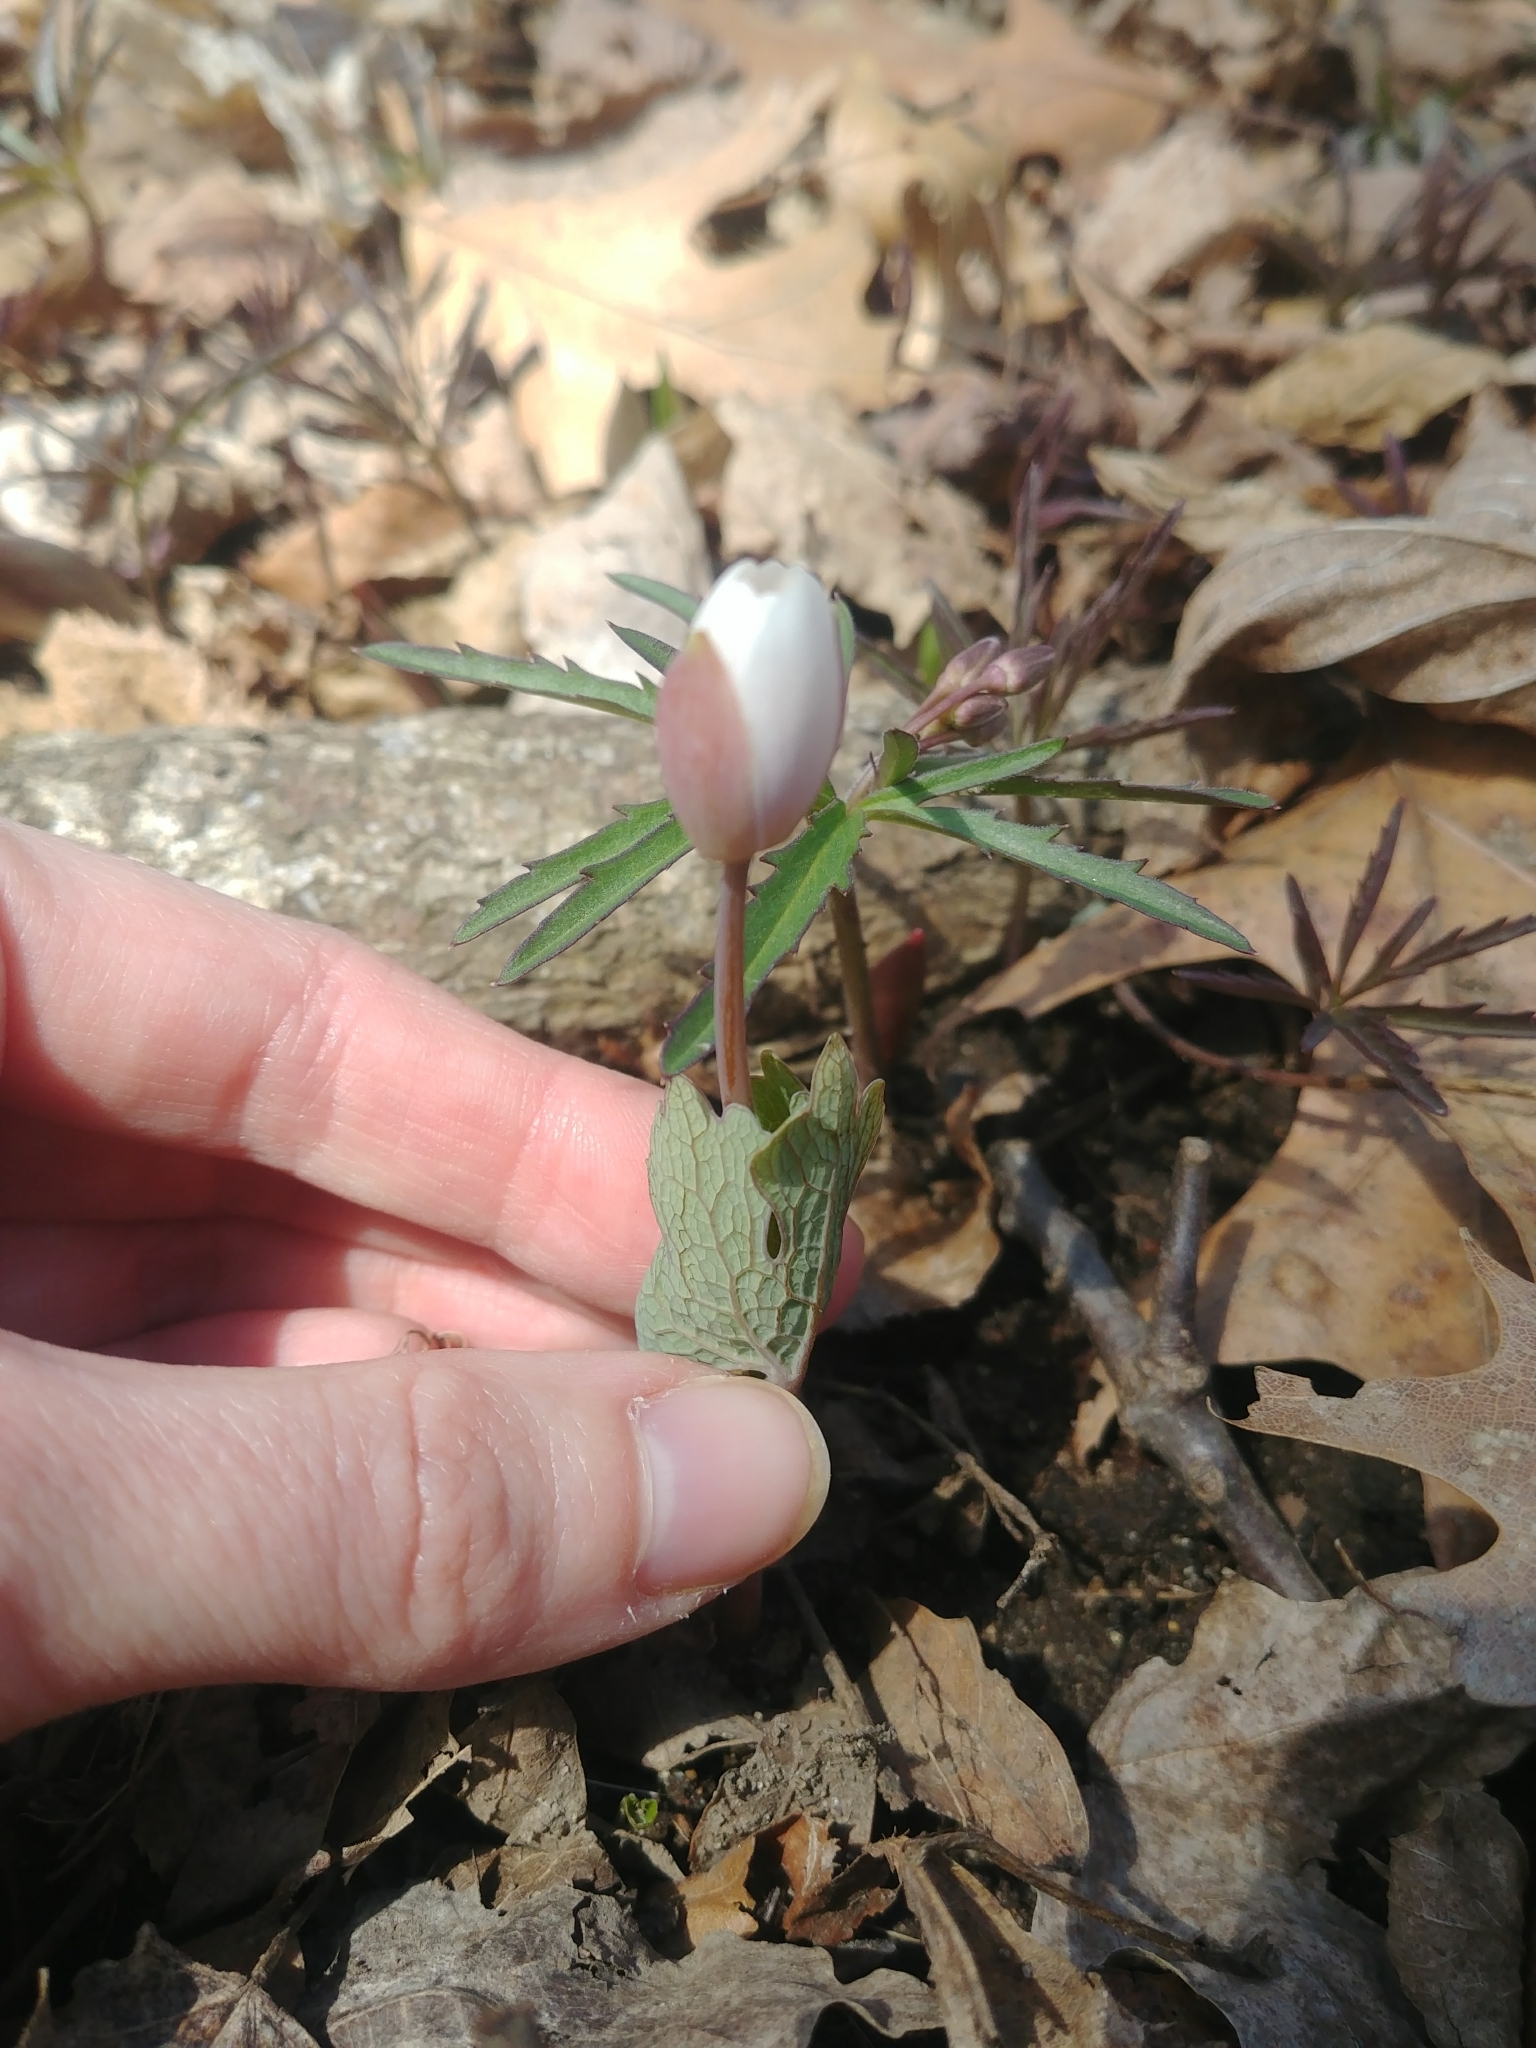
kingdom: Plantae
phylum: Tracheophyta
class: Magnoliopsida
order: Ranunculales
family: Papaveraceae
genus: Sanguinaria
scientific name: Sanguinaria canadensis
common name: Bloodroot
